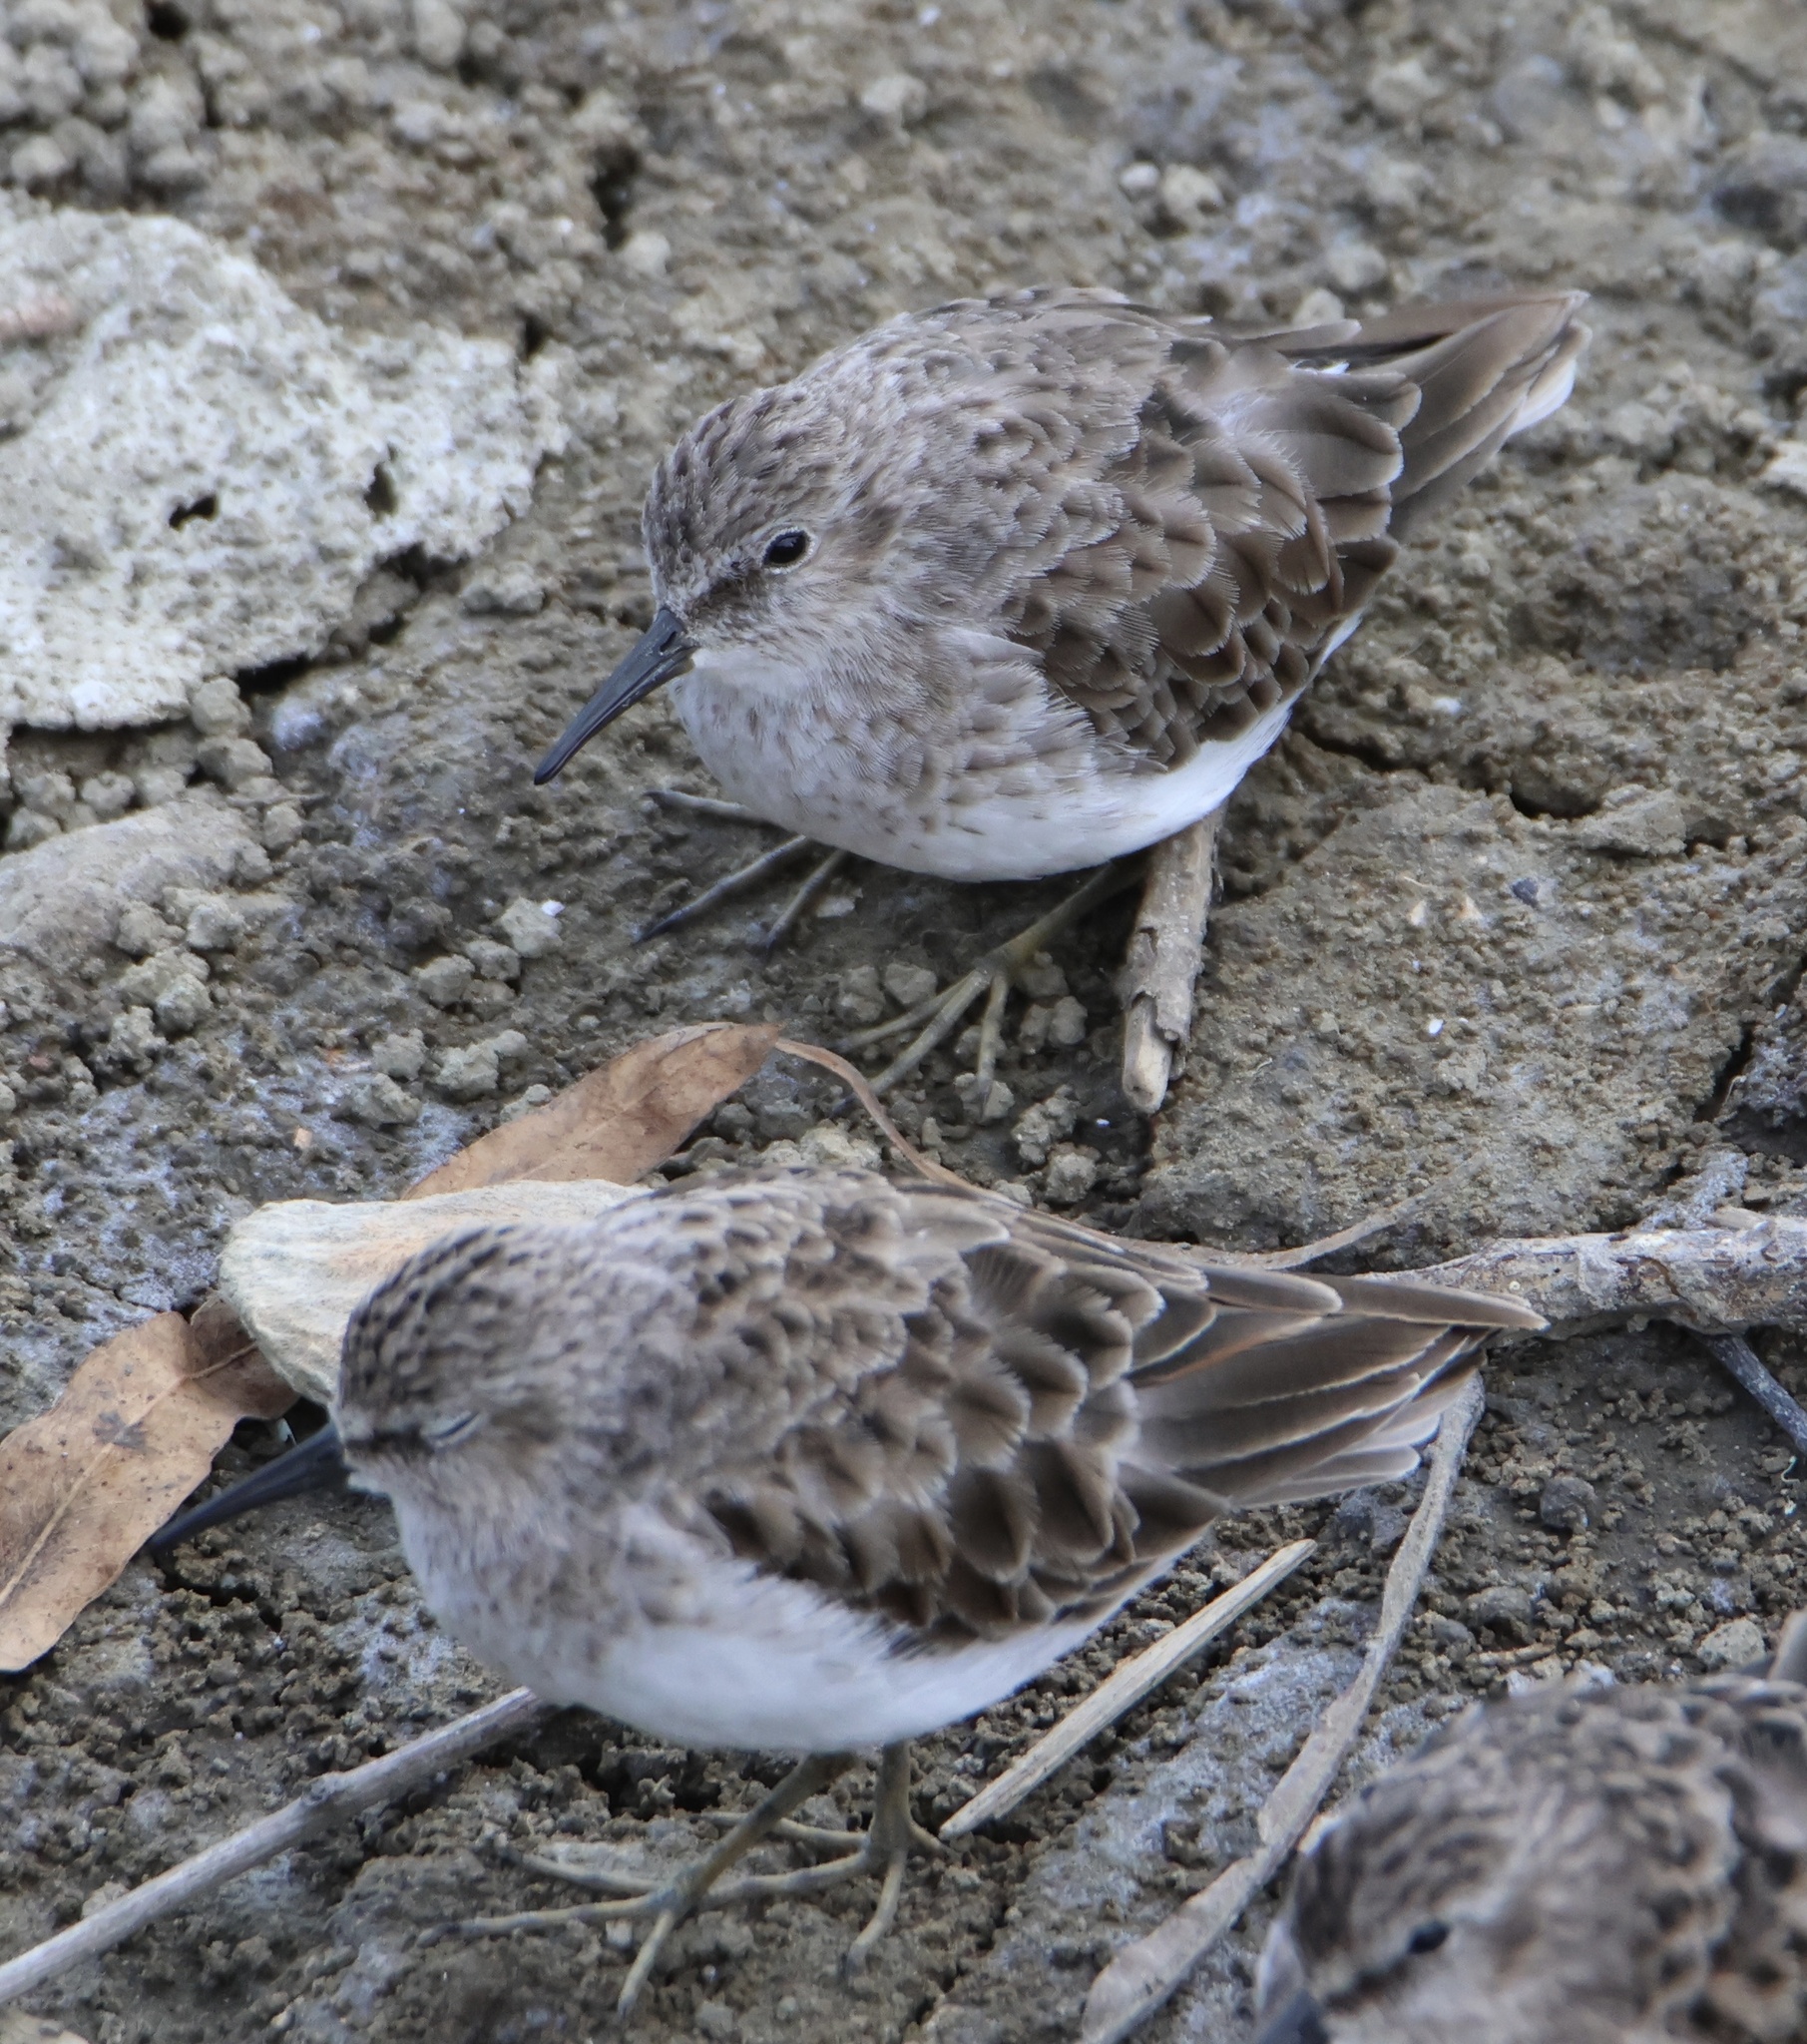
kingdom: Animalia
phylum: Chordata
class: Aves
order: Charadriiformes
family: Scolopacidae
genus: Calidris
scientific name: Calidris minutilla
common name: Least sandpiper
